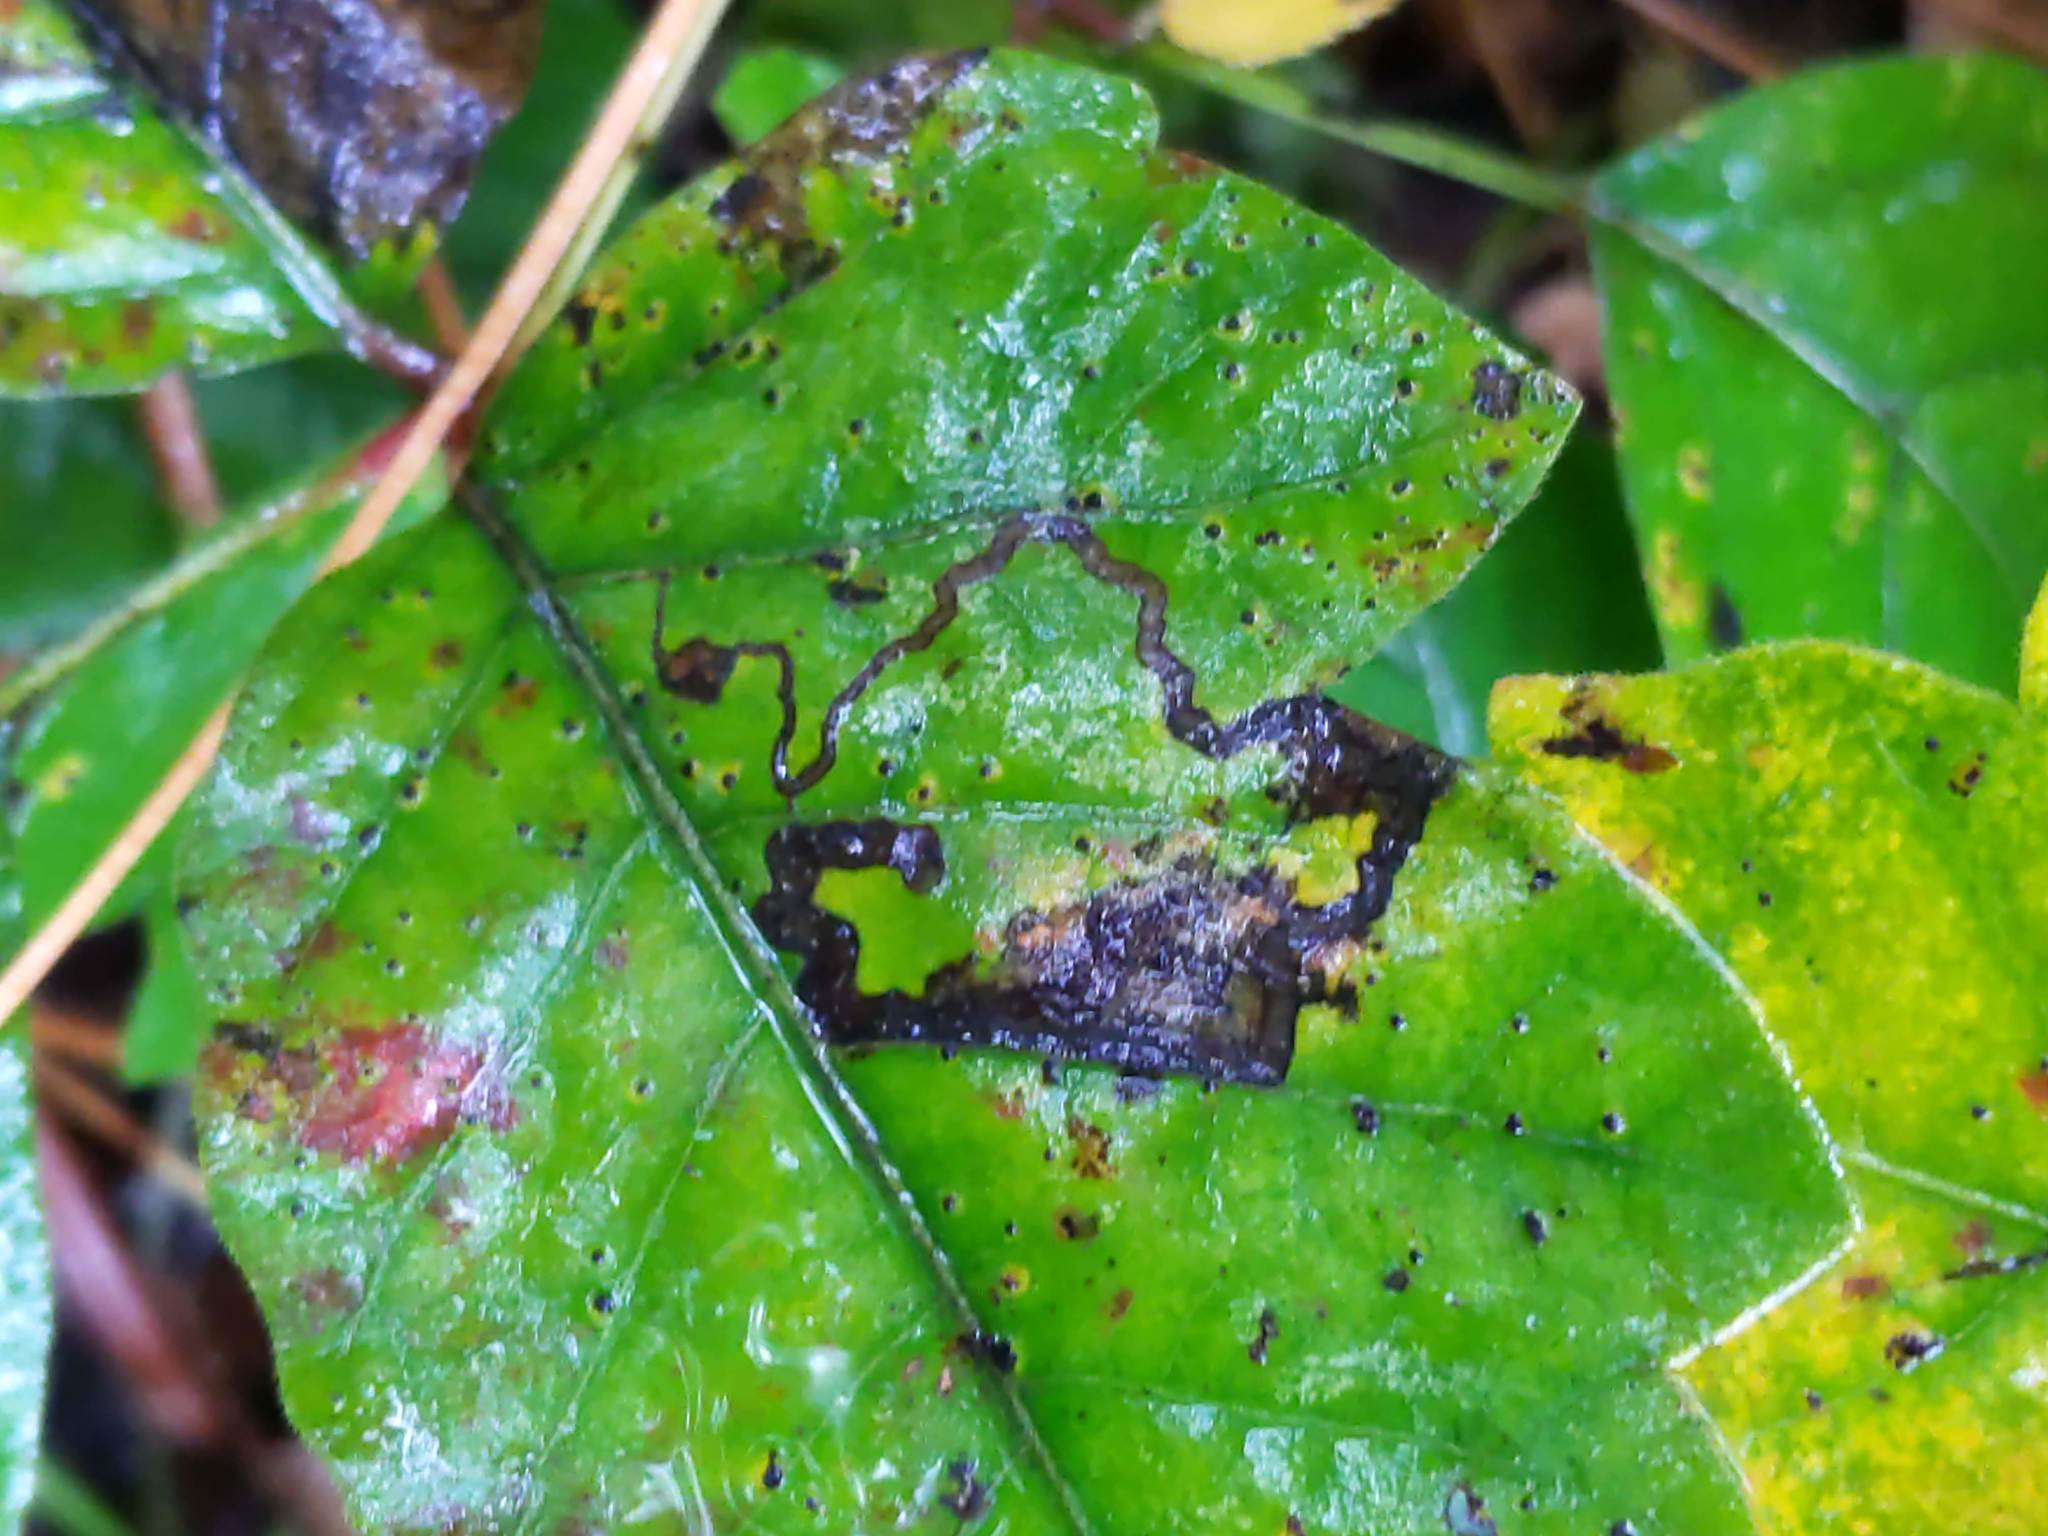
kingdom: Animalia
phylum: Arthropoda
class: Insecta
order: Lepidoptera
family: Nepticulidae
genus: Stigmella
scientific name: Stigmella rhoifoliella
